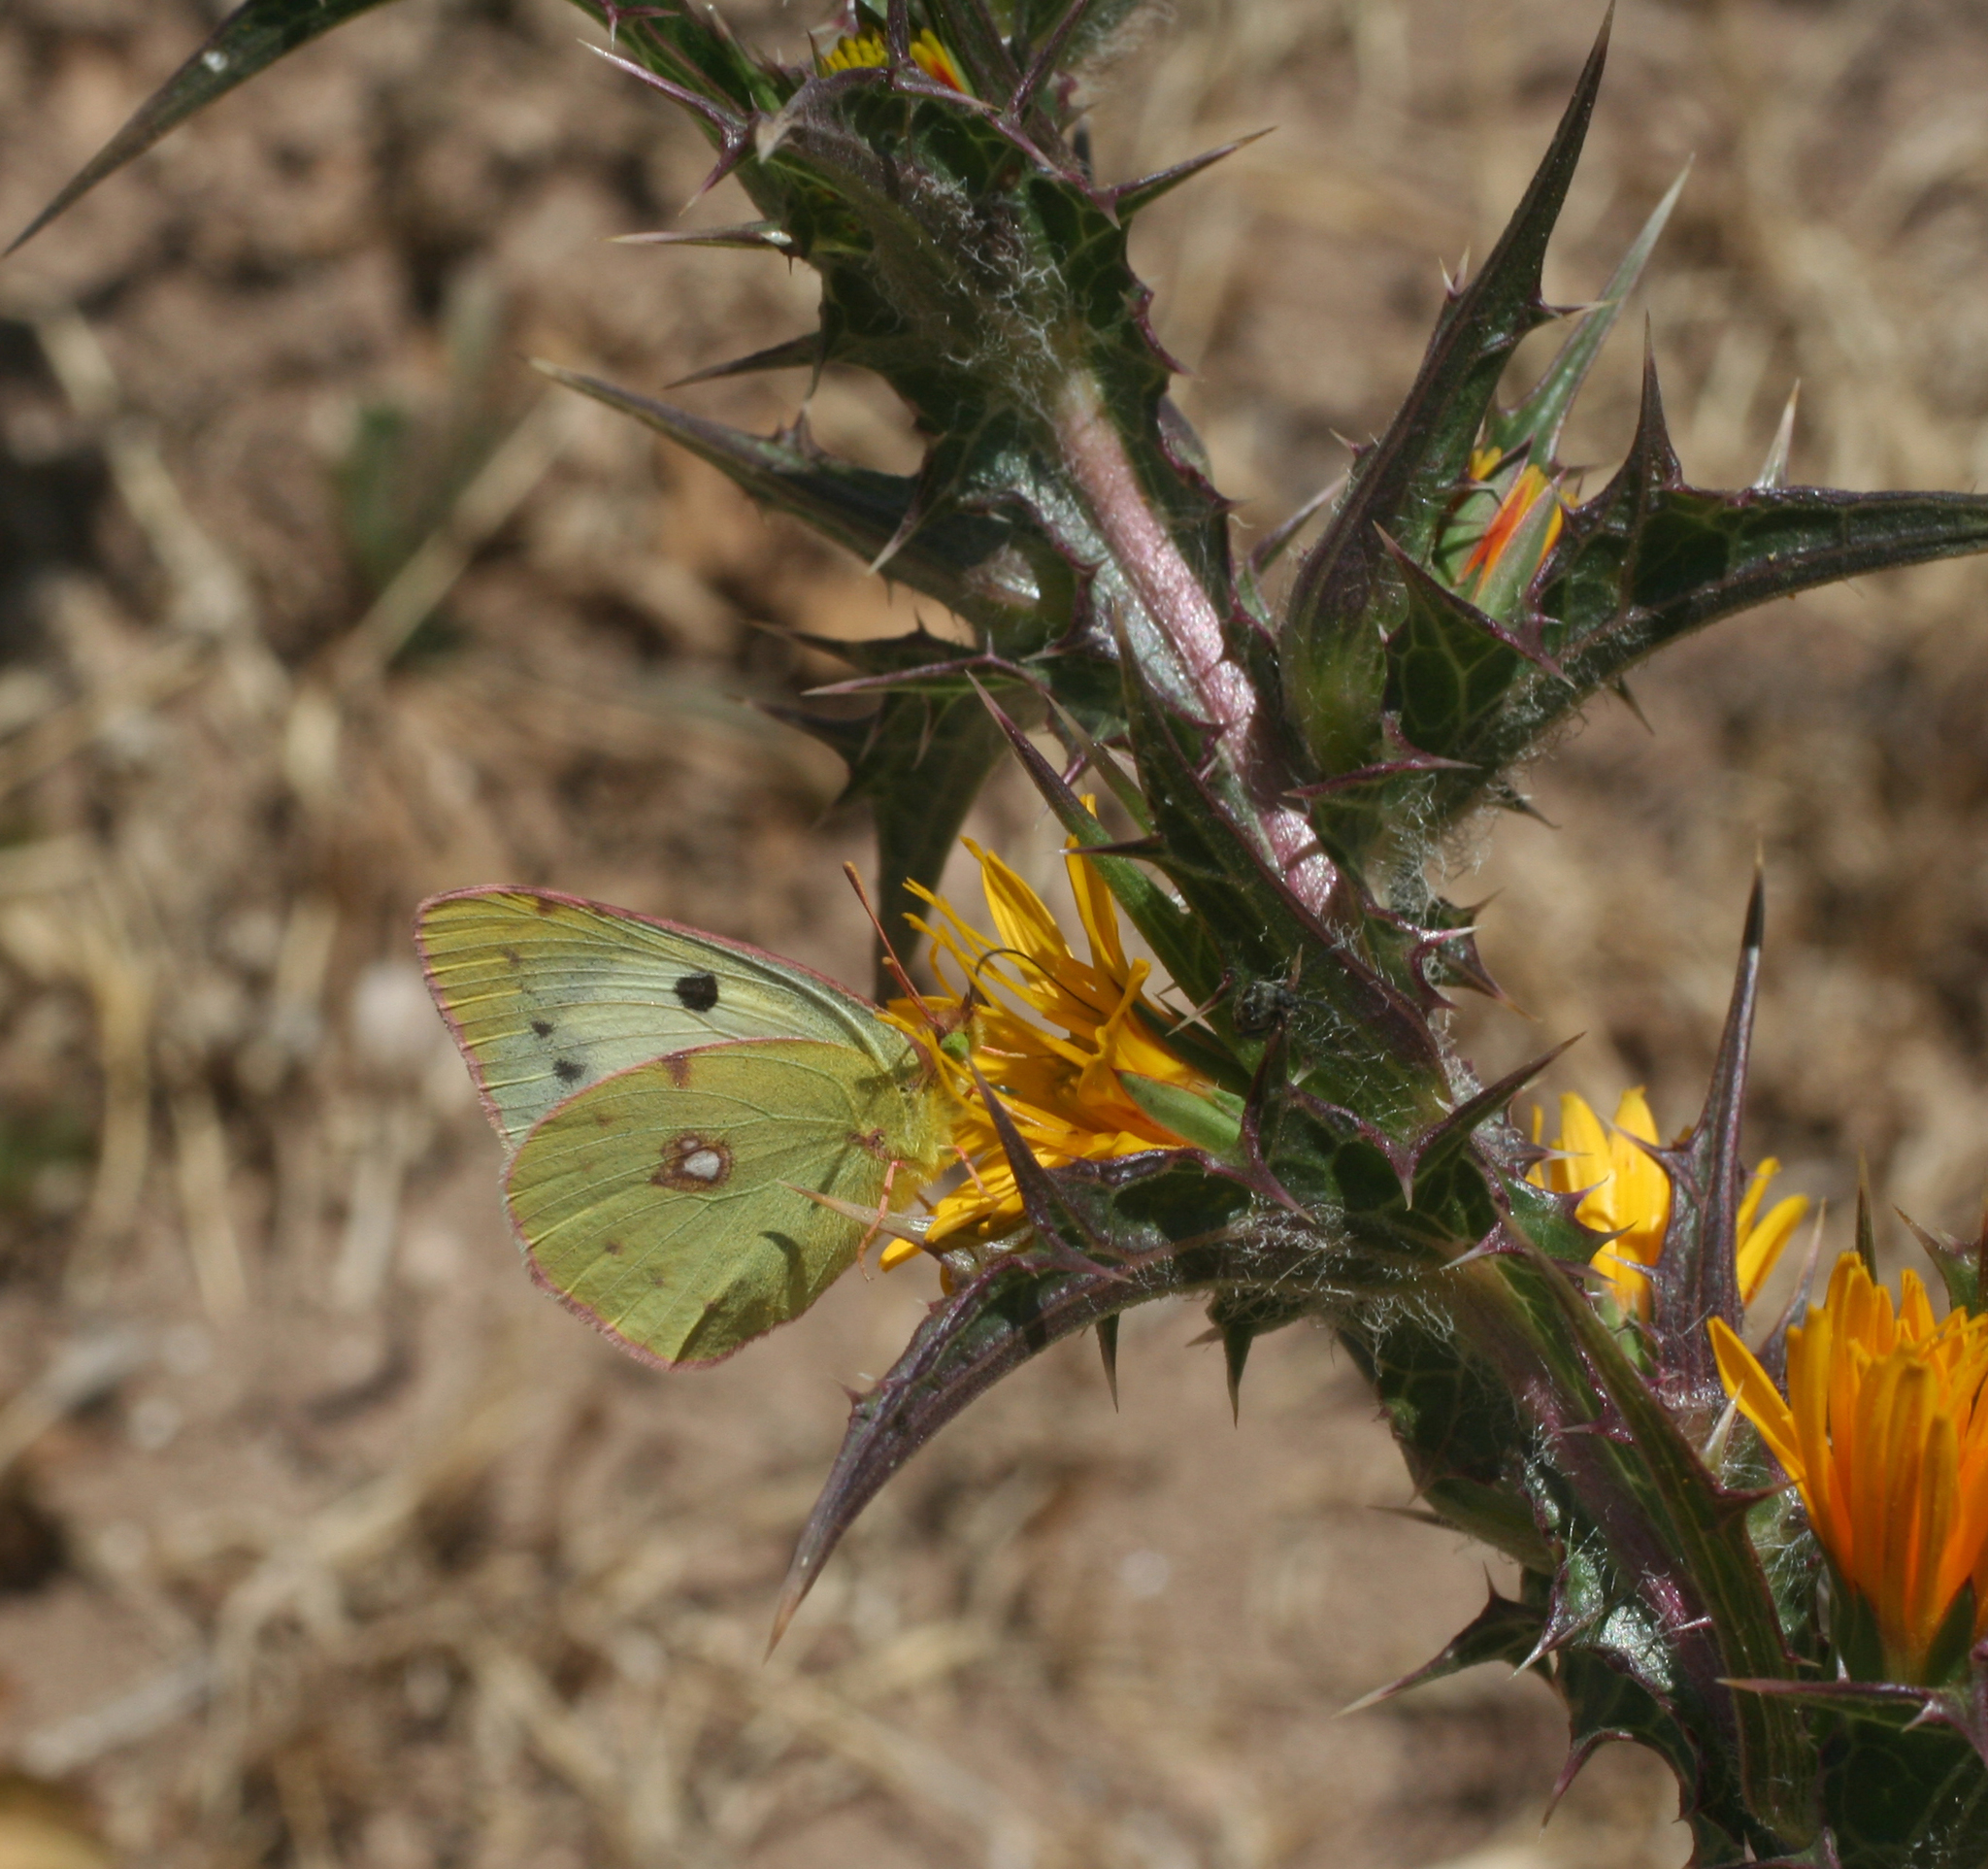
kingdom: Animalia
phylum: Arthropoda
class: Insecta
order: Lepidoptera
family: Pieridae
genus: Colias
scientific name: Colias croceus
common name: Clouded yellow
